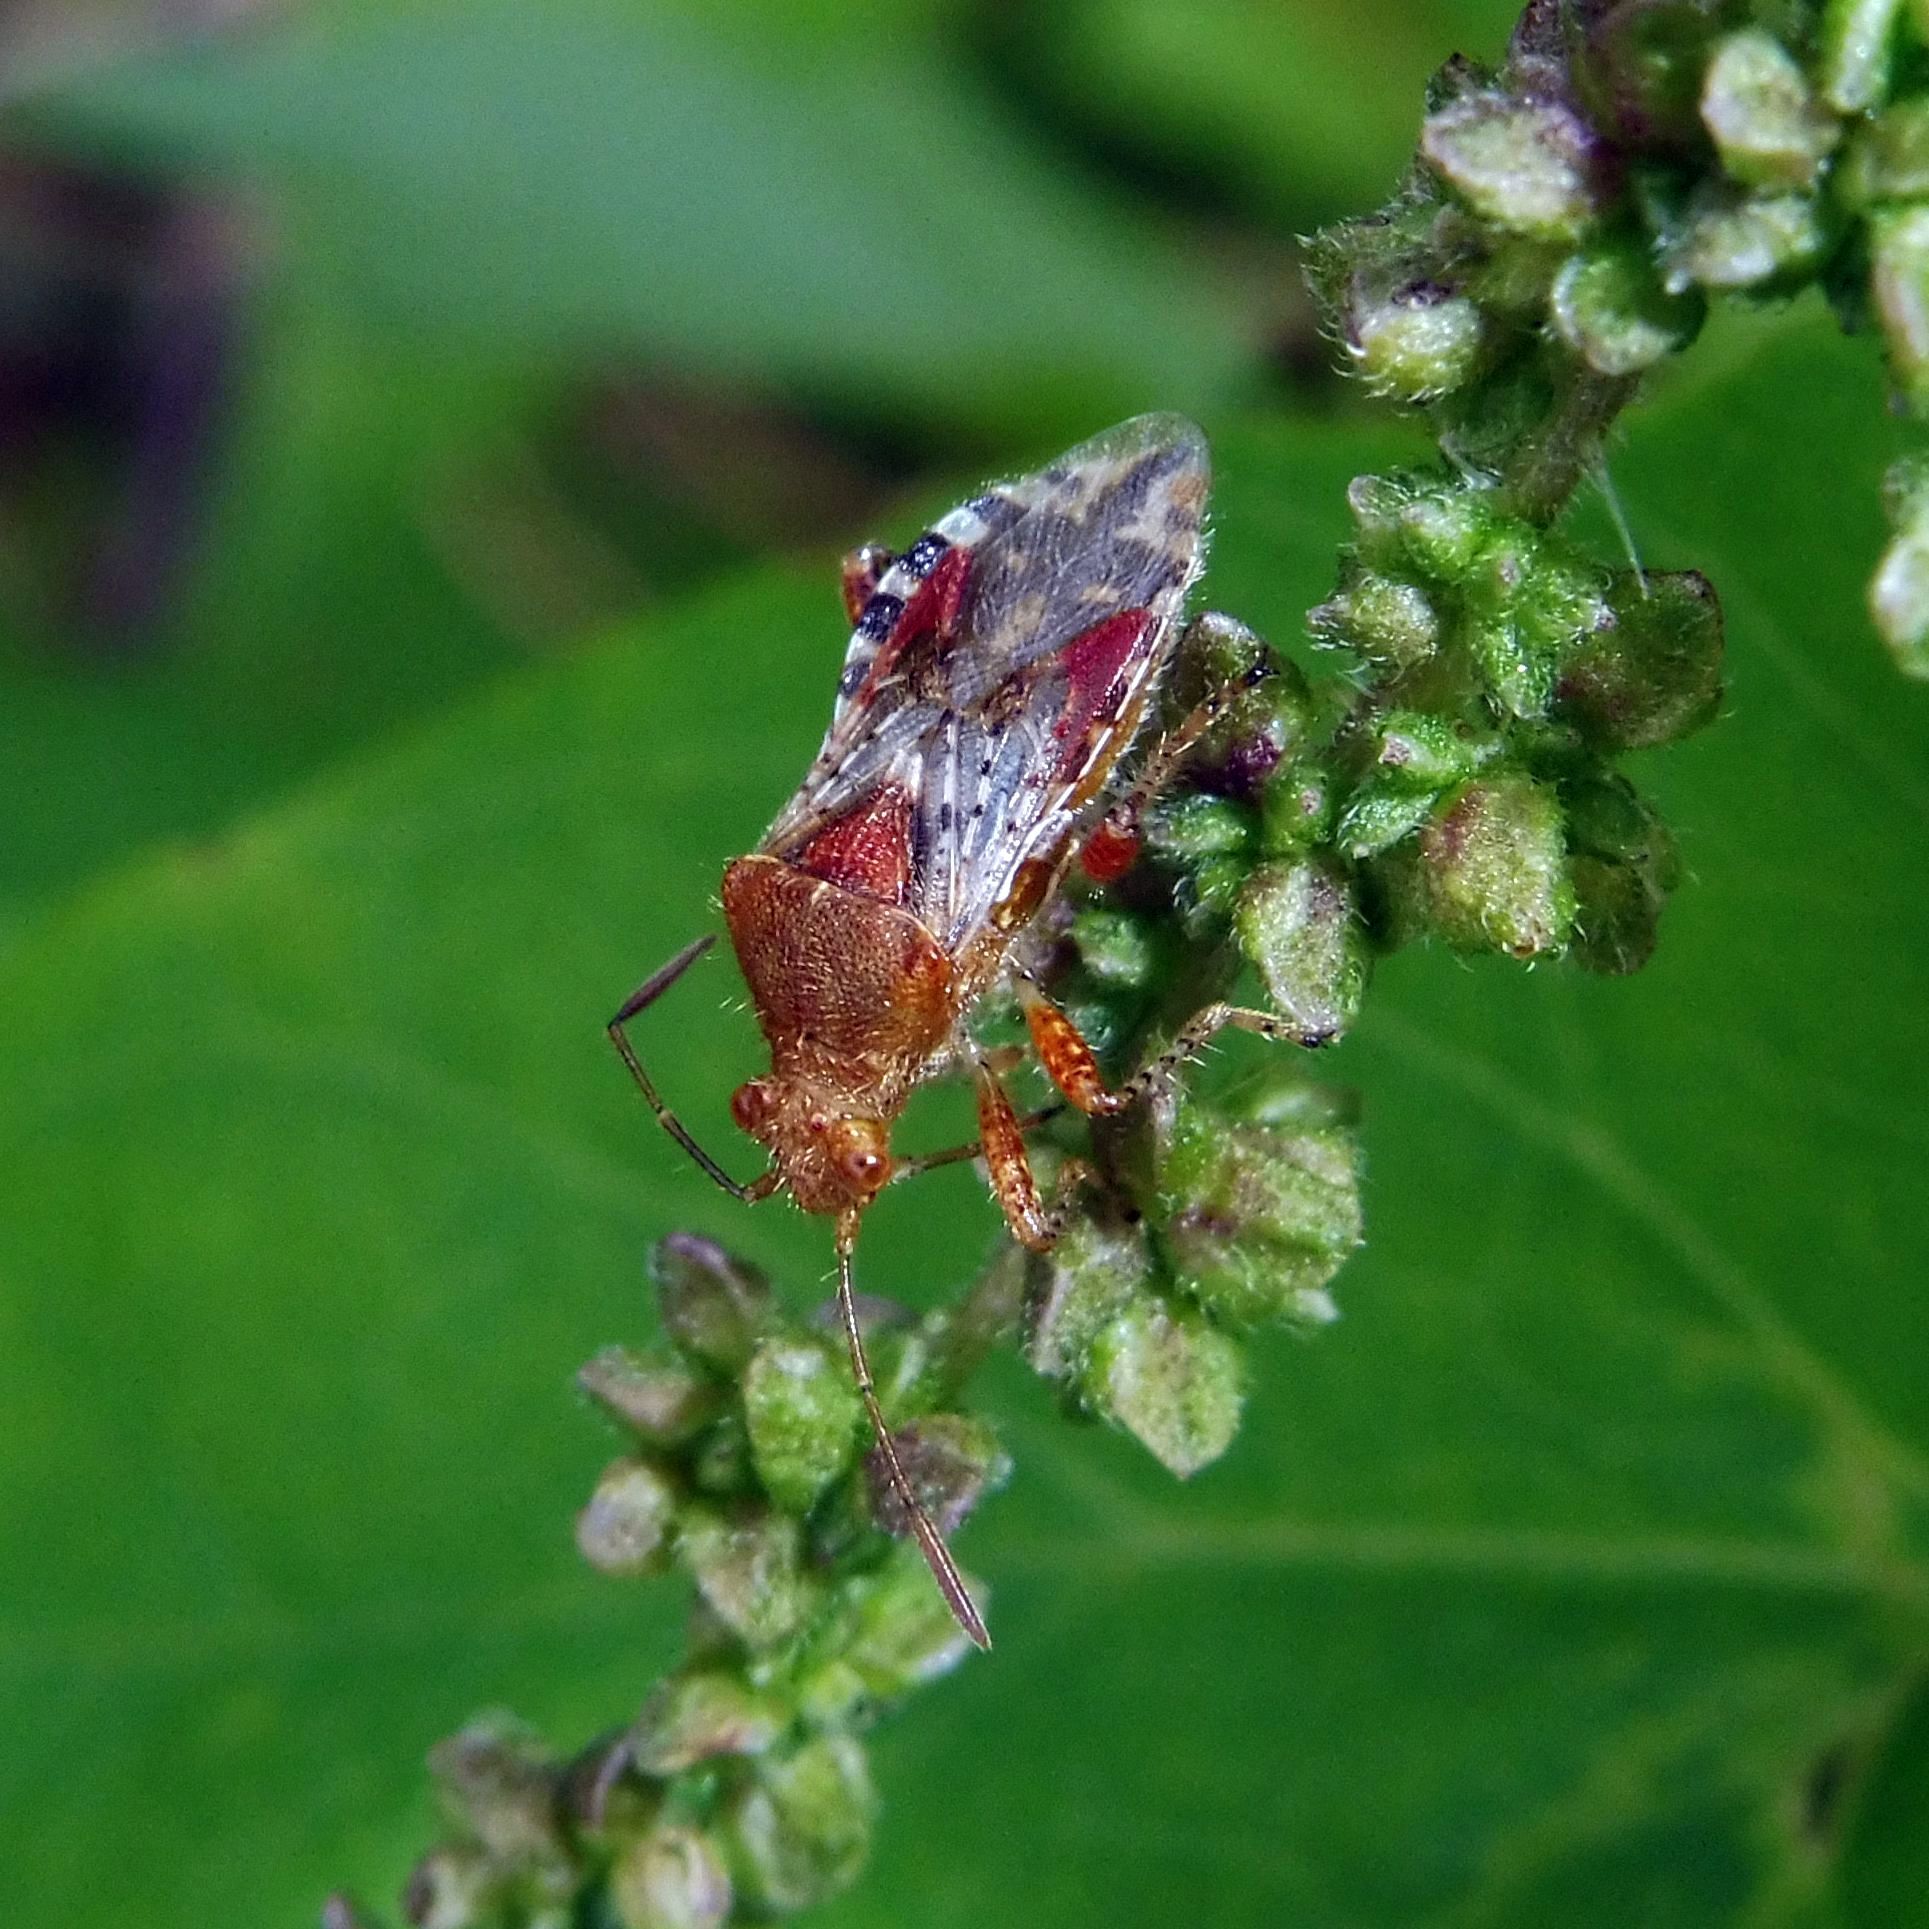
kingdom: Animalia
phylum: Arthropoda
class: Insecta
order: Hemiptera
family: Rhopalidae
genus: Rhopalus
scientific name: Rhopalus subrufus
